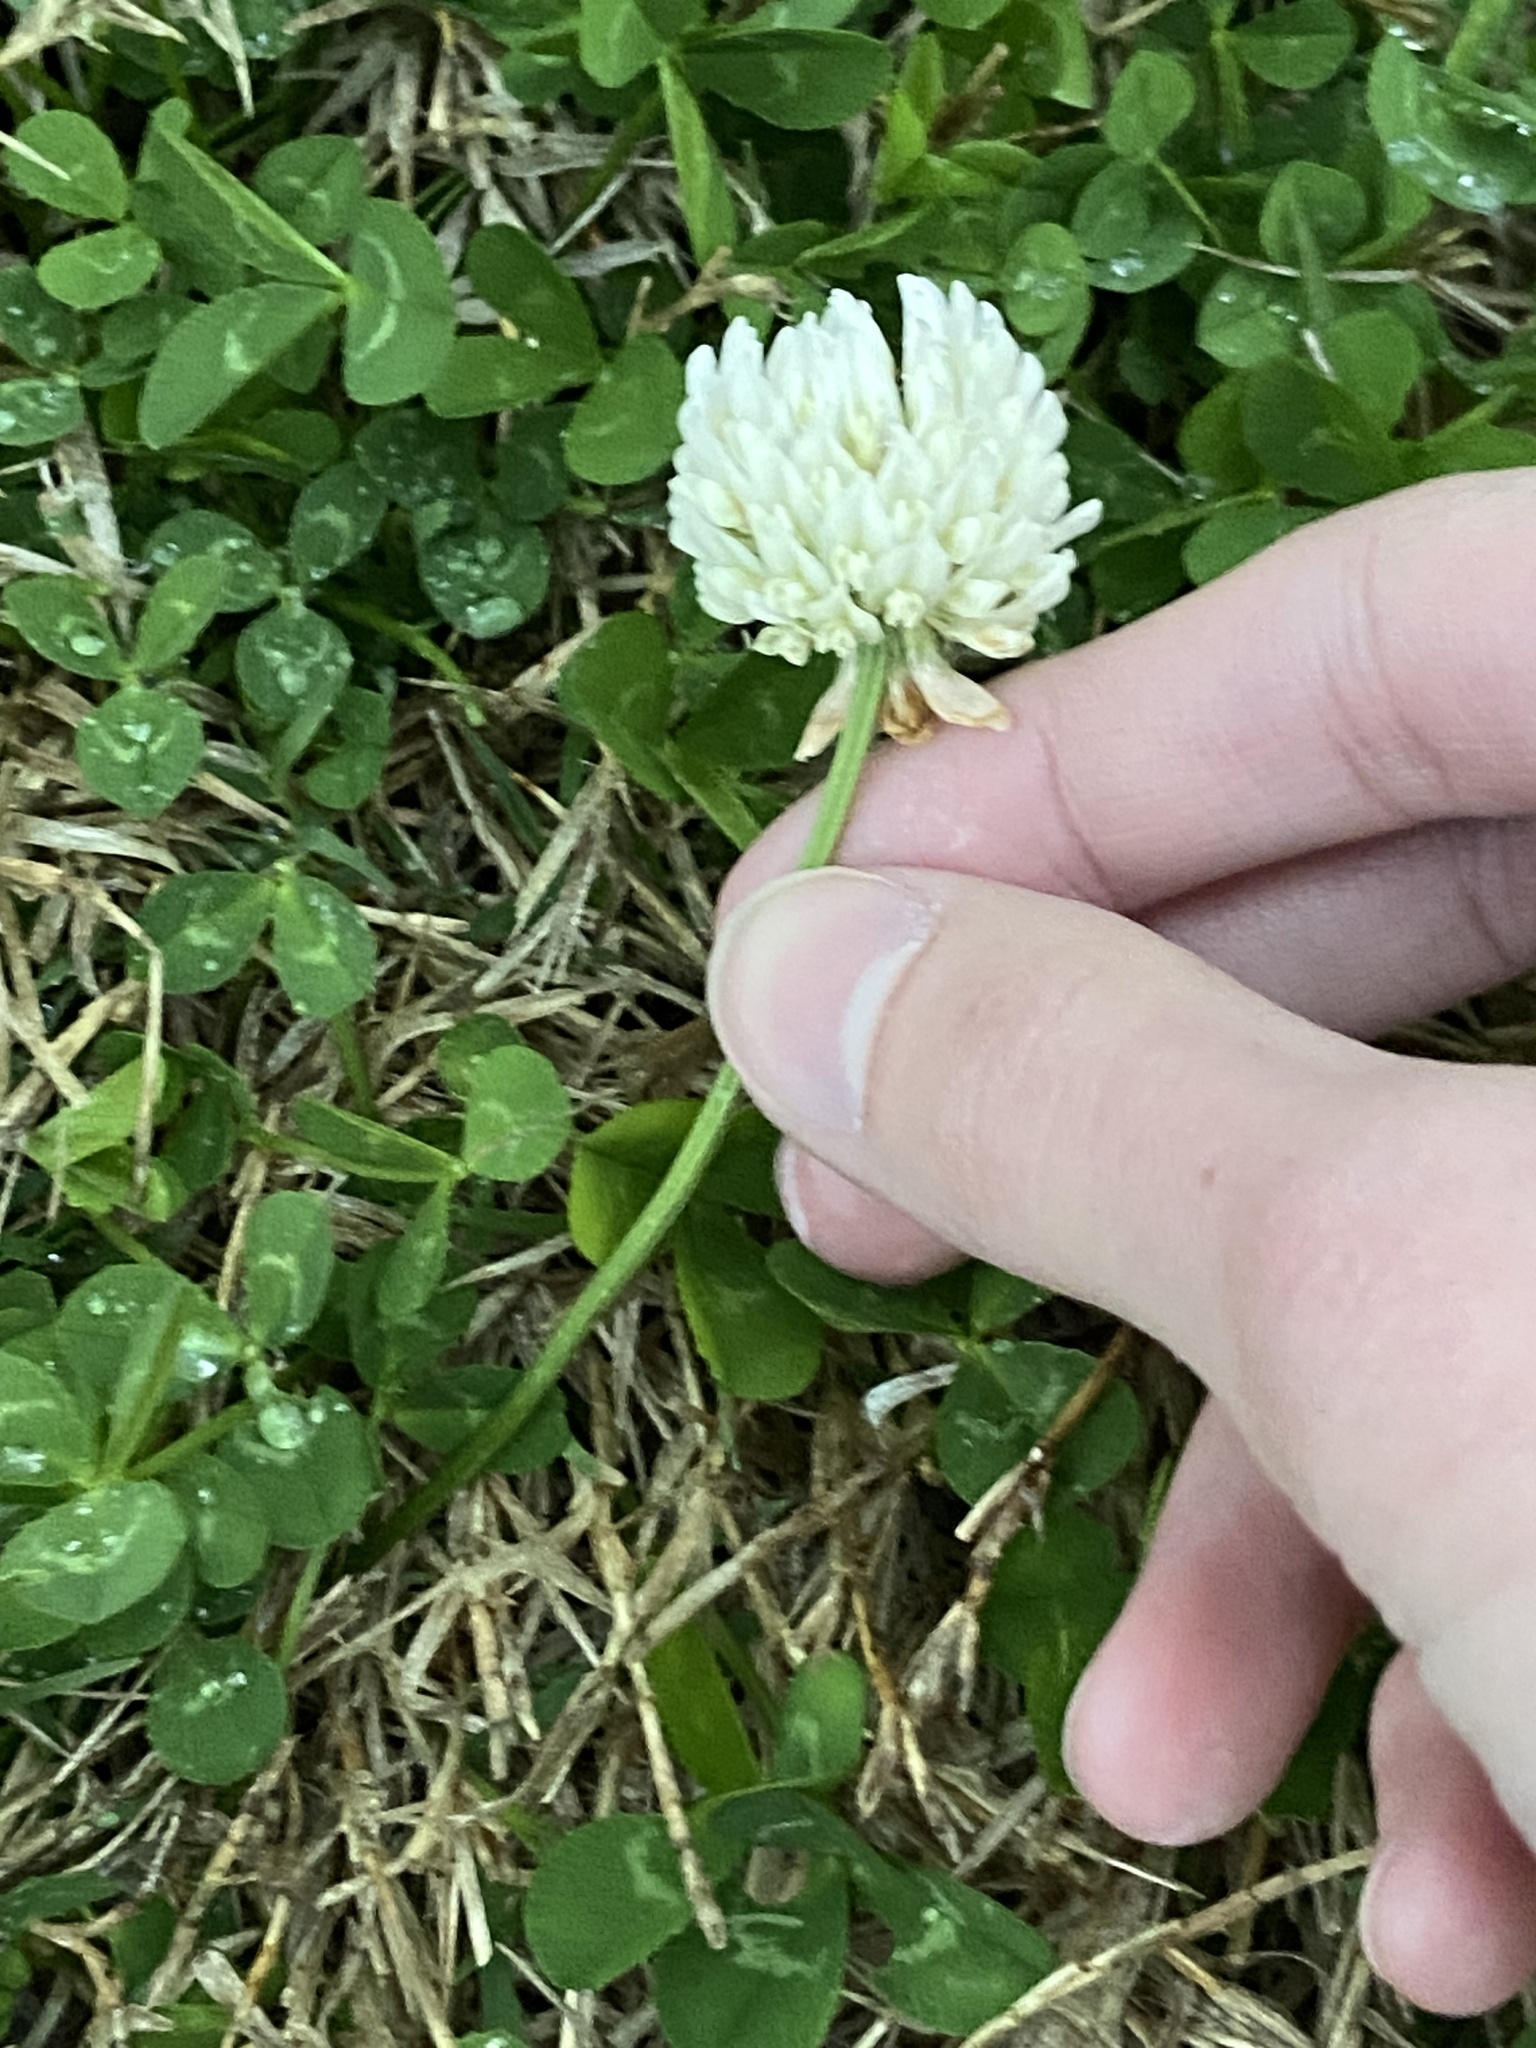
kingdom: Plantae
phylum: Tracheophyta
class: Magnoliopsida
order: Fabales
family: Fabaceae
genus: Trifolium
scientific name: Trifolium repens
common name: White clover
